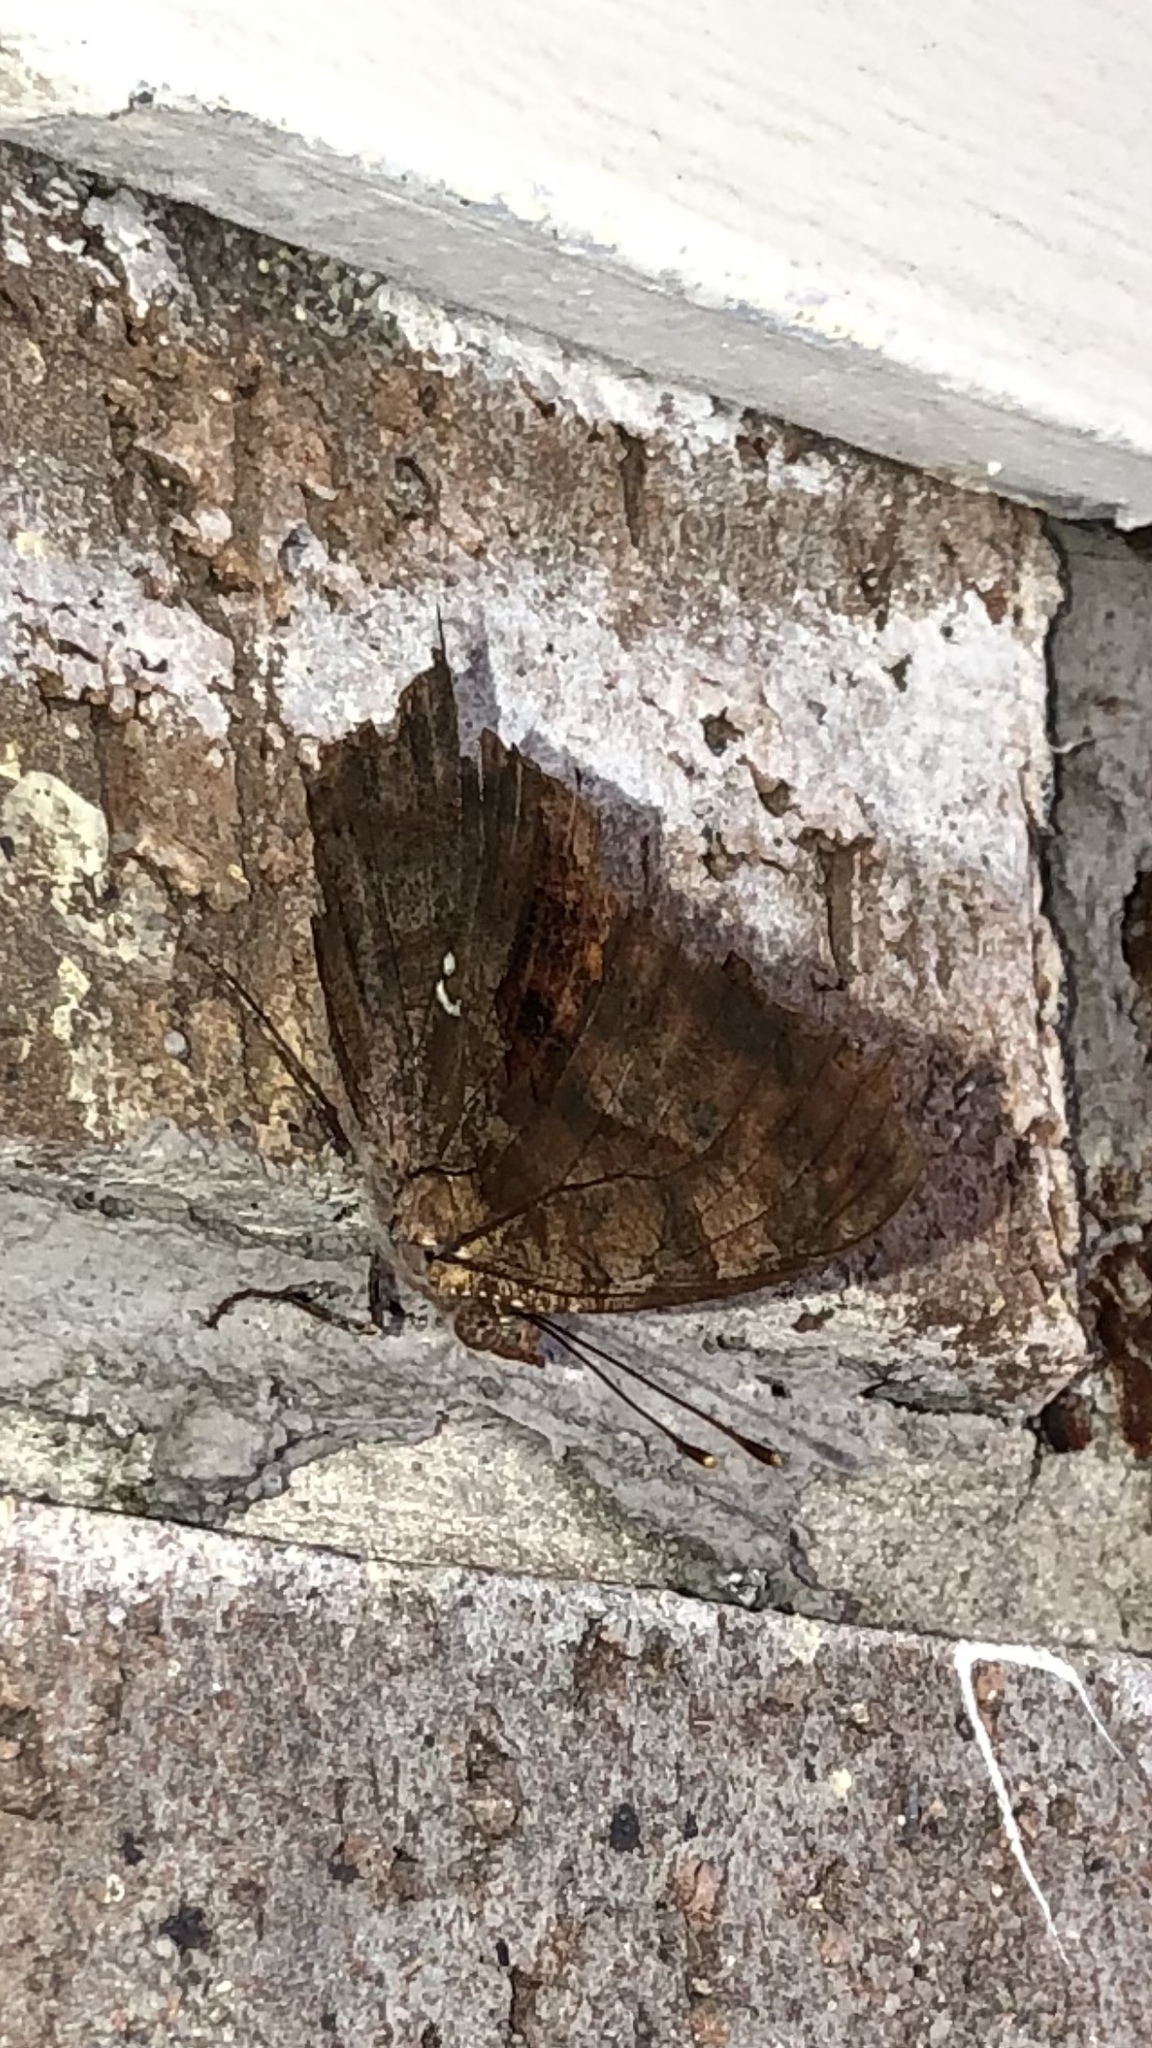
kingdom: Animalia
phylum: Arthropoda
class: Insecta
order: Lepidoptera
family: Nymphalidae
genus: Polygonia
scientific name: Polygonia interrogationis
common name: Question mark
